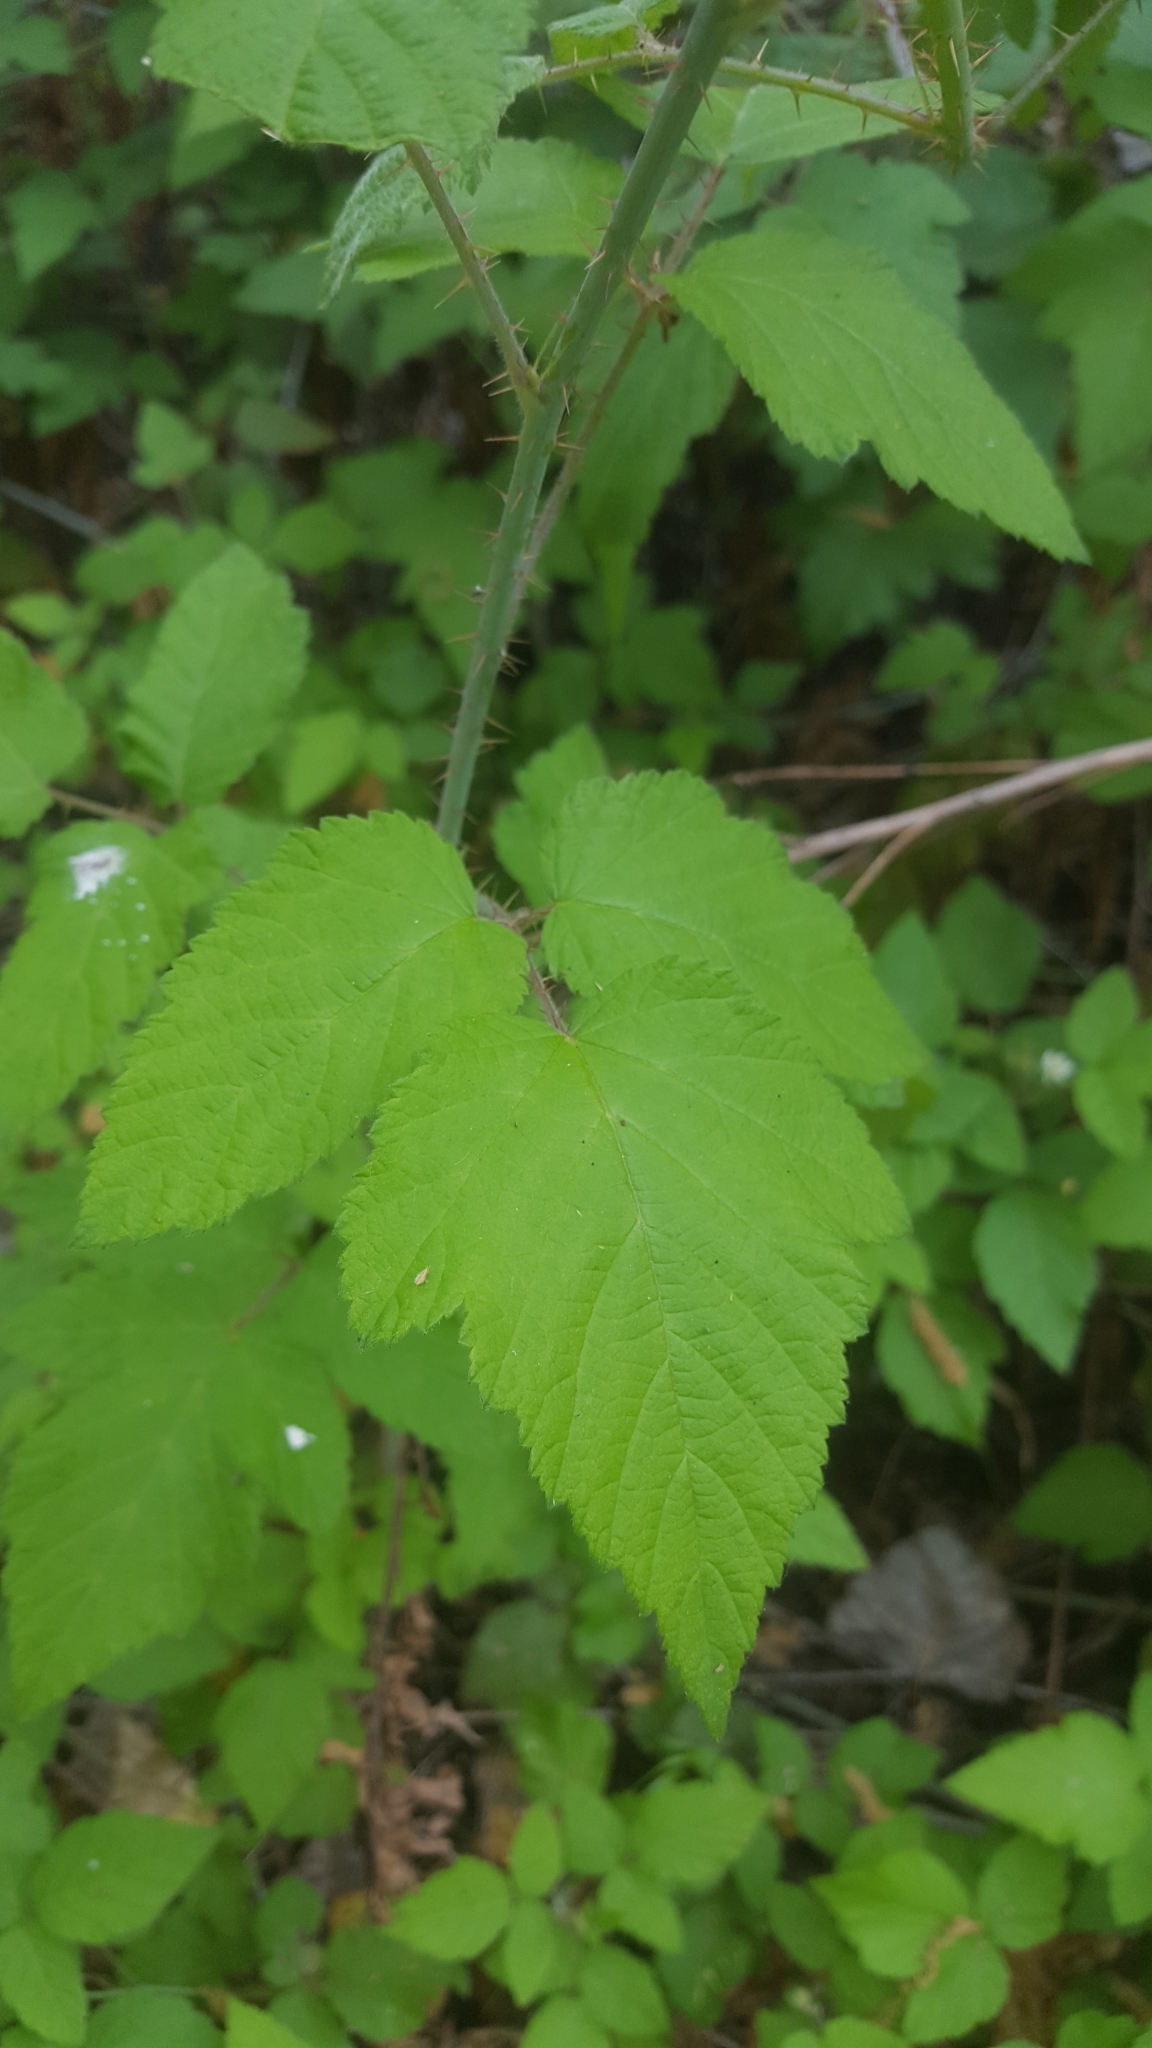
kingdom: Plantae
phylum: Tracheophyta
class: Magnoliopsida
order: Rosales
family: Rosaceae
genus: Rubus
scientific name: Rubus ursinus
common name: Pacific blackberry
